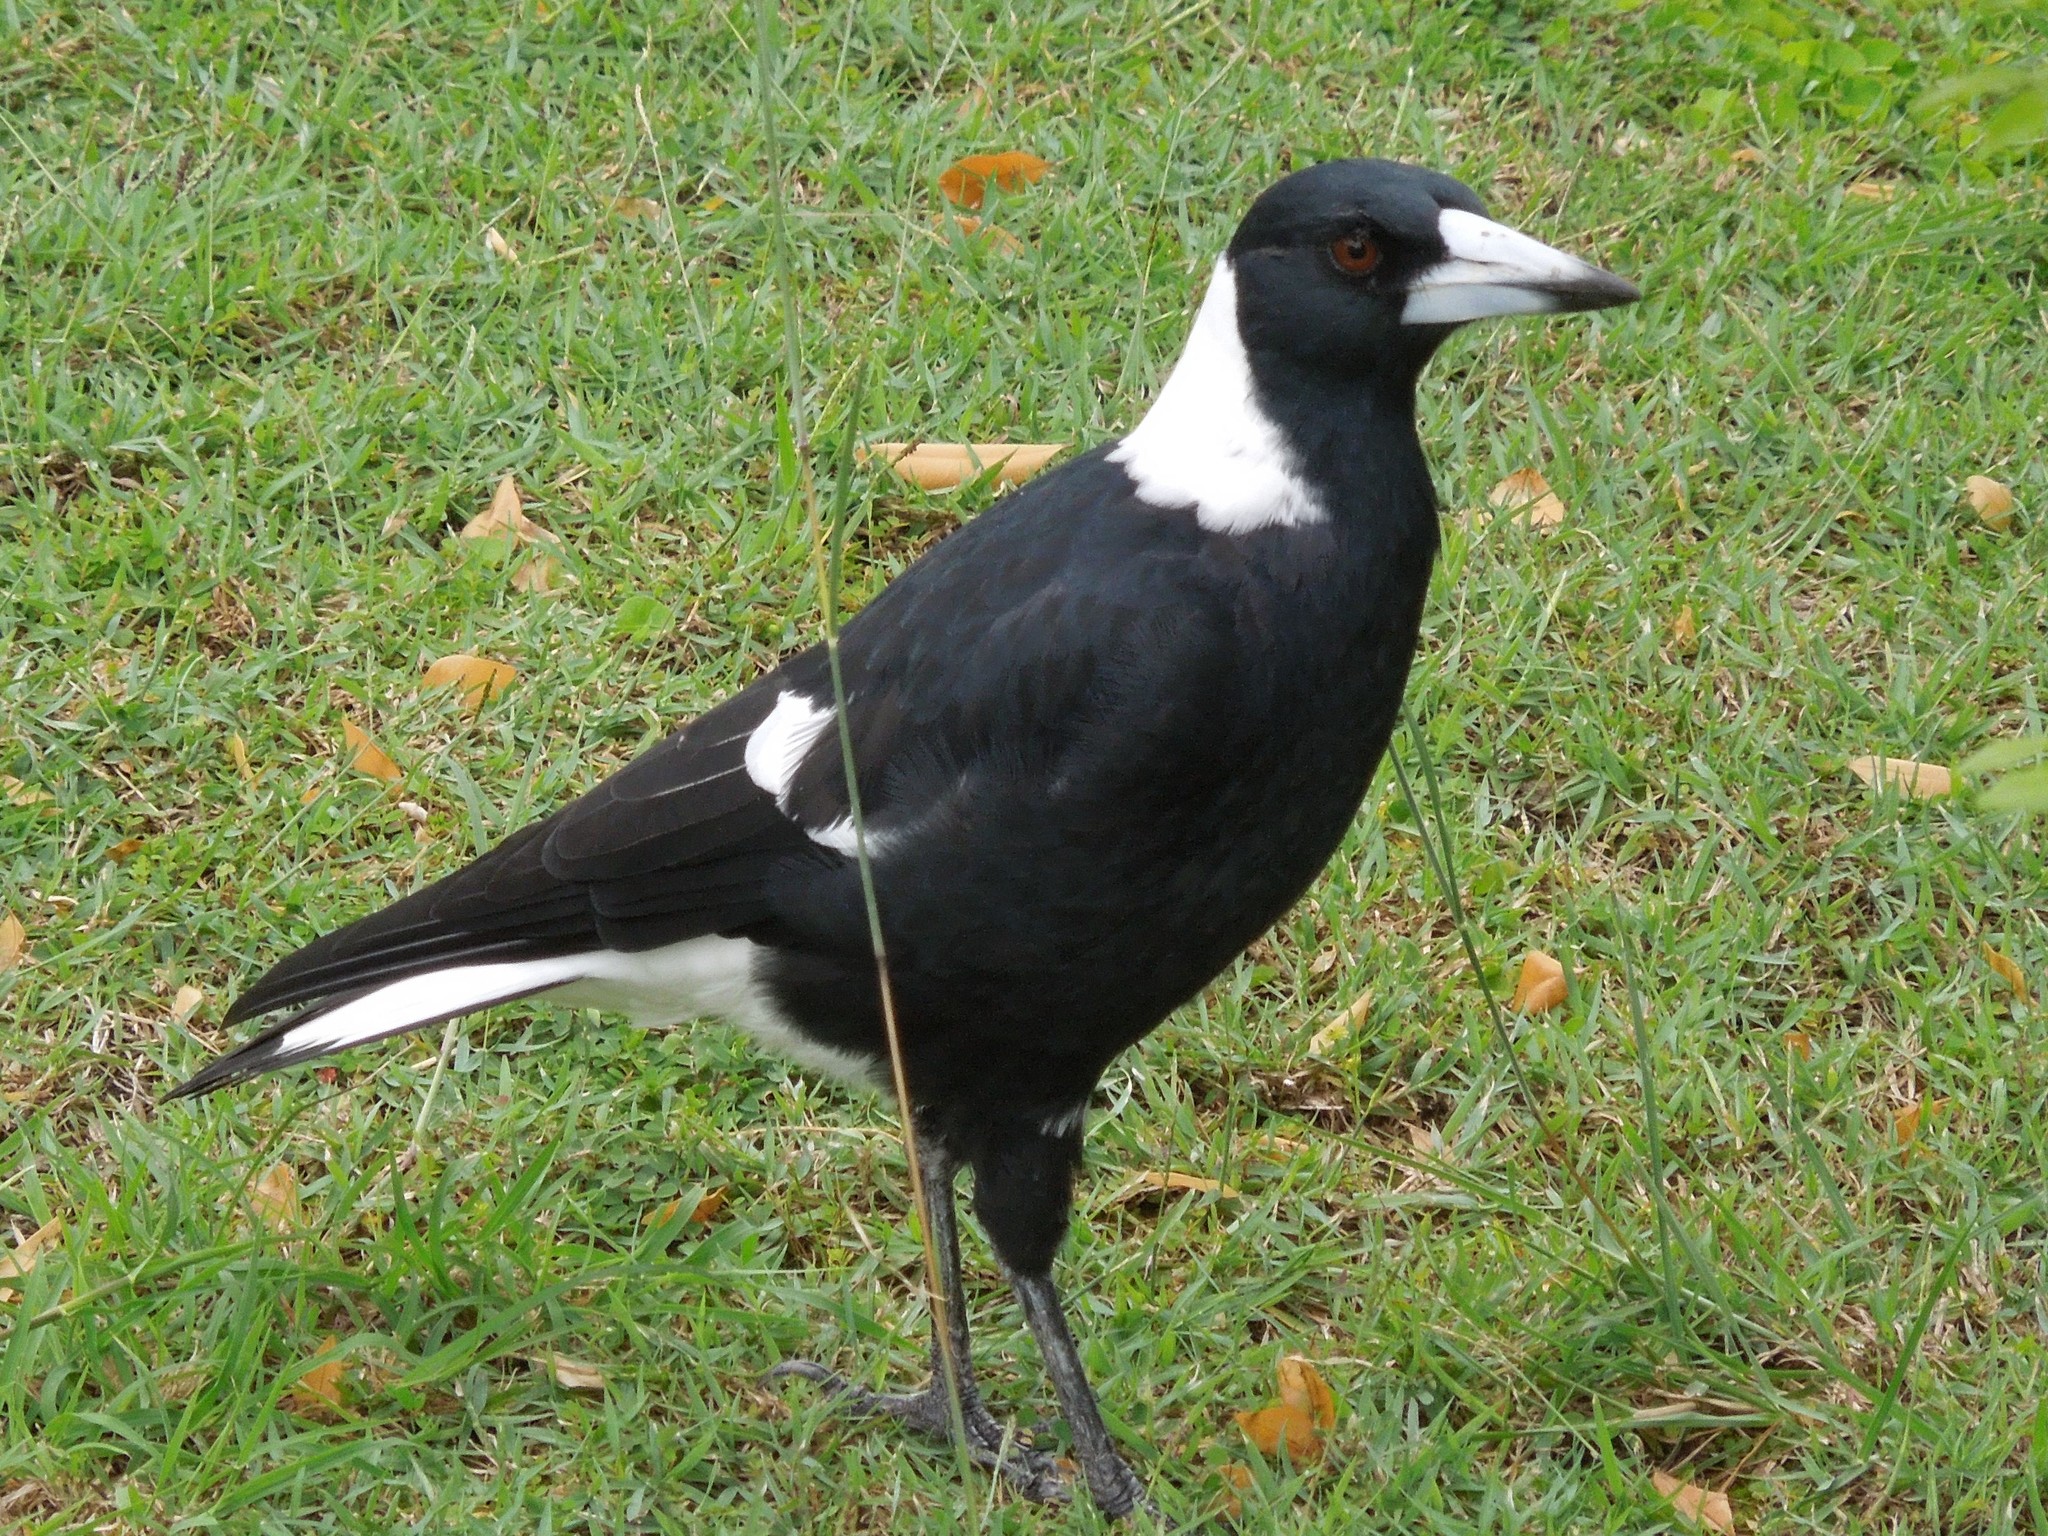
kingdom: Animalia
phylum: Chordata
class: Aves
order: Passeriformes
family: Cracticidae
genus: Gymnorhina
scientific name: Gymnorhina tibicen
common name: Australian magpie
